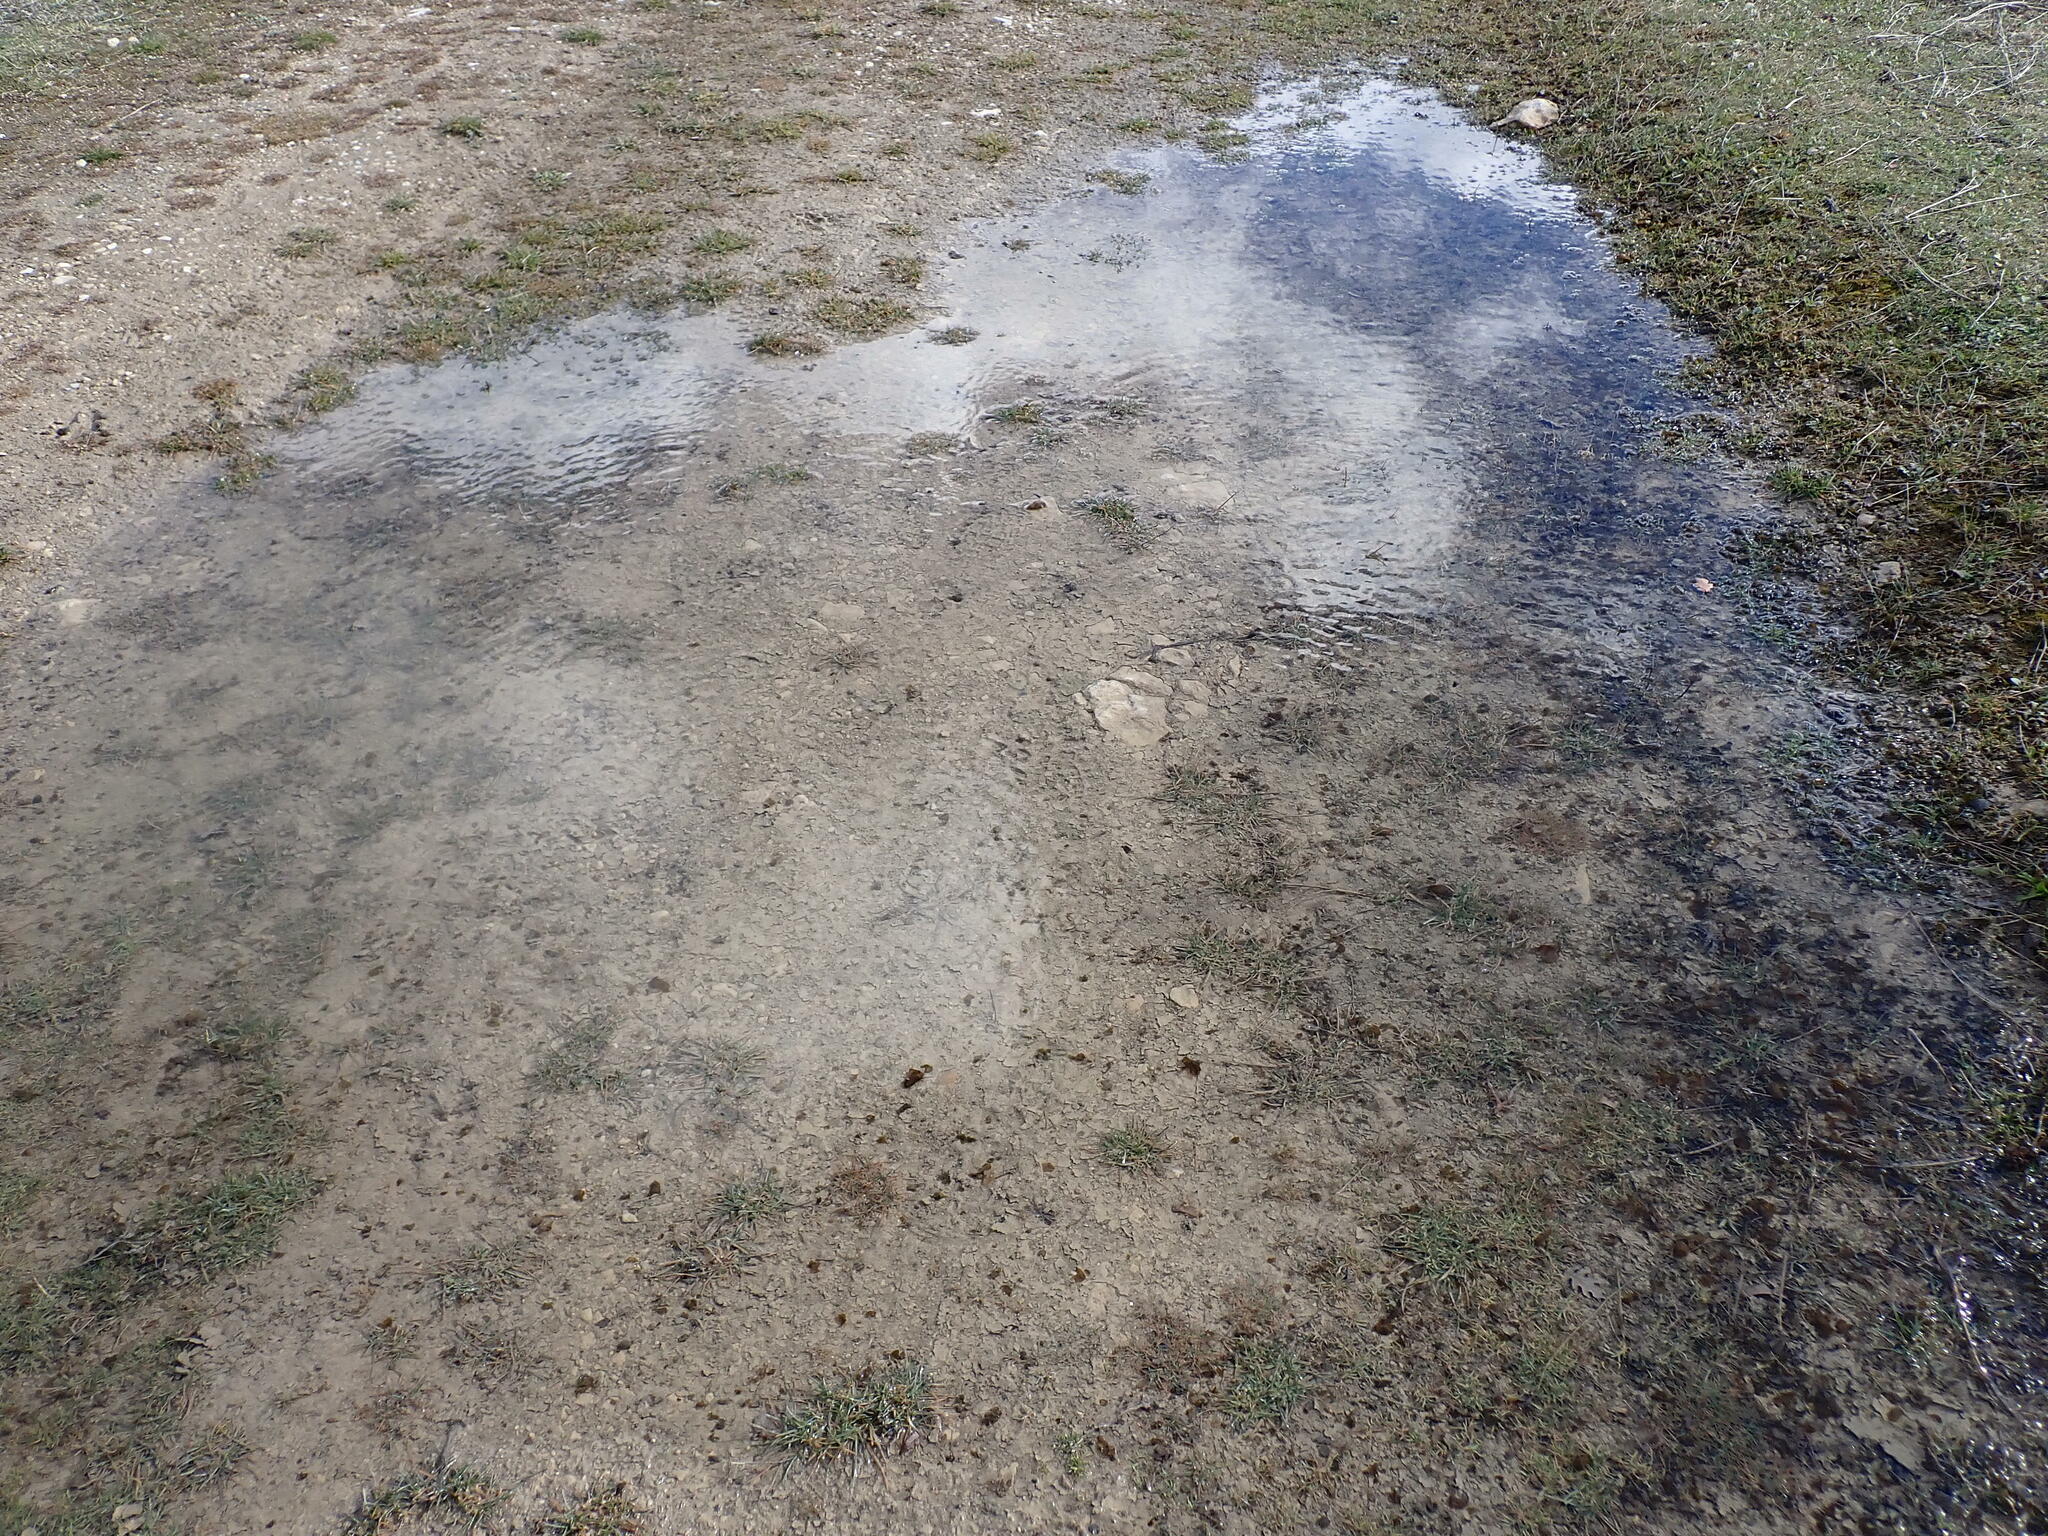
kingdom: Bacteria
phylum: Cyanobacteria
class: Cyanobacteriia
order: Cyanobacteriales
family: Nostocaceae
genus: Nostoc
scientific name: Nostoc commune
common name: Star jelly
